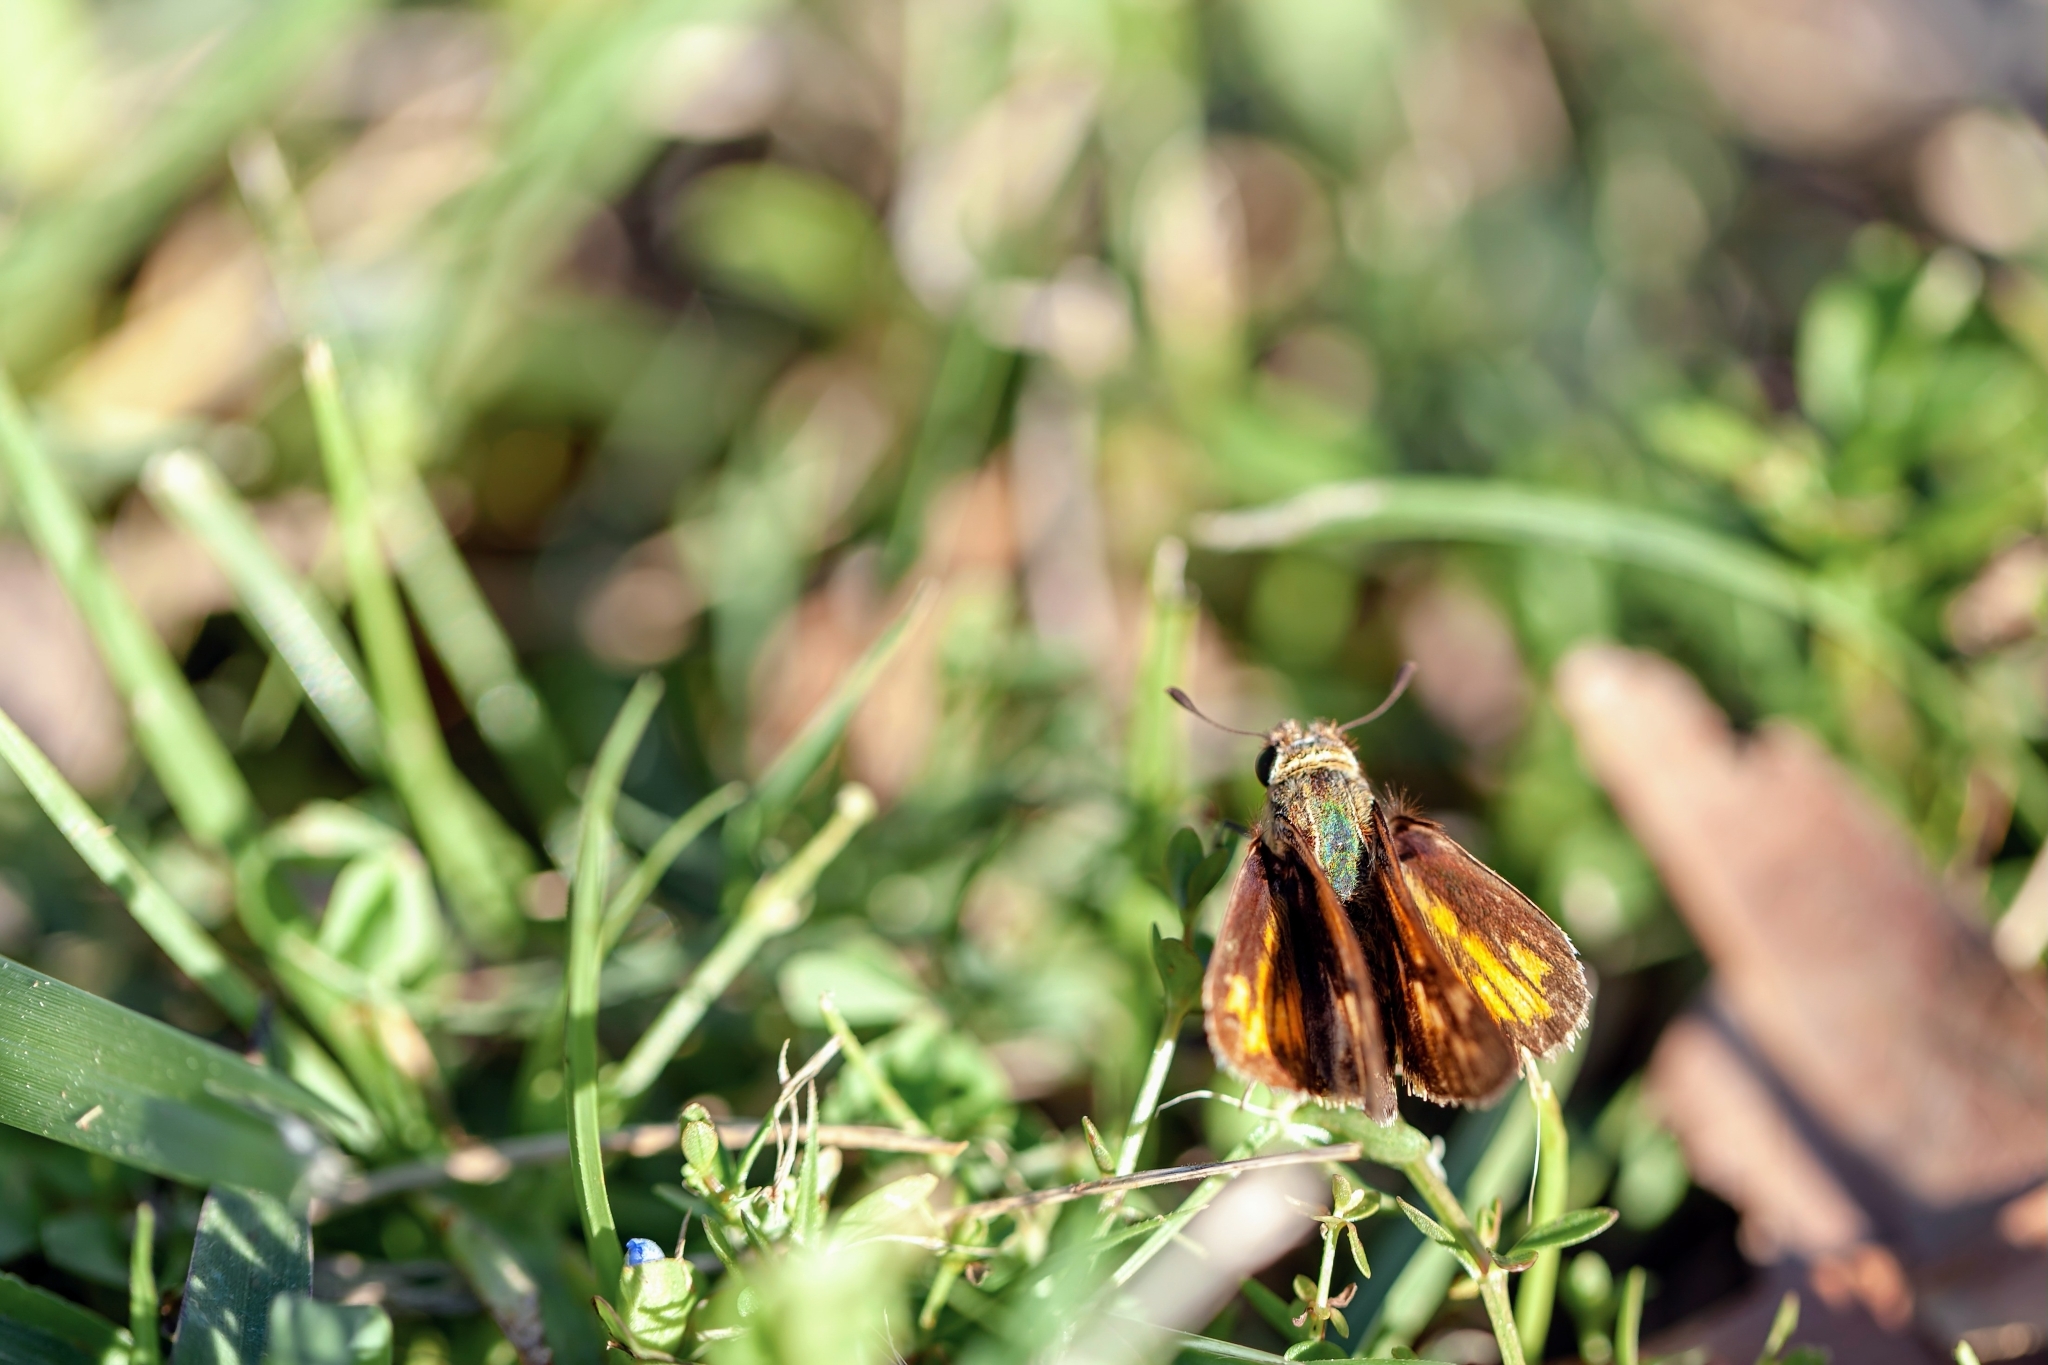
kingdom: Animalia
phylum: Arthropoda
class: Insecta
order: Lepidoptera
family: Hesperiidae
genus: Hylephila
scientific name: Hylephila phyleus
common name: Fiery skipper
